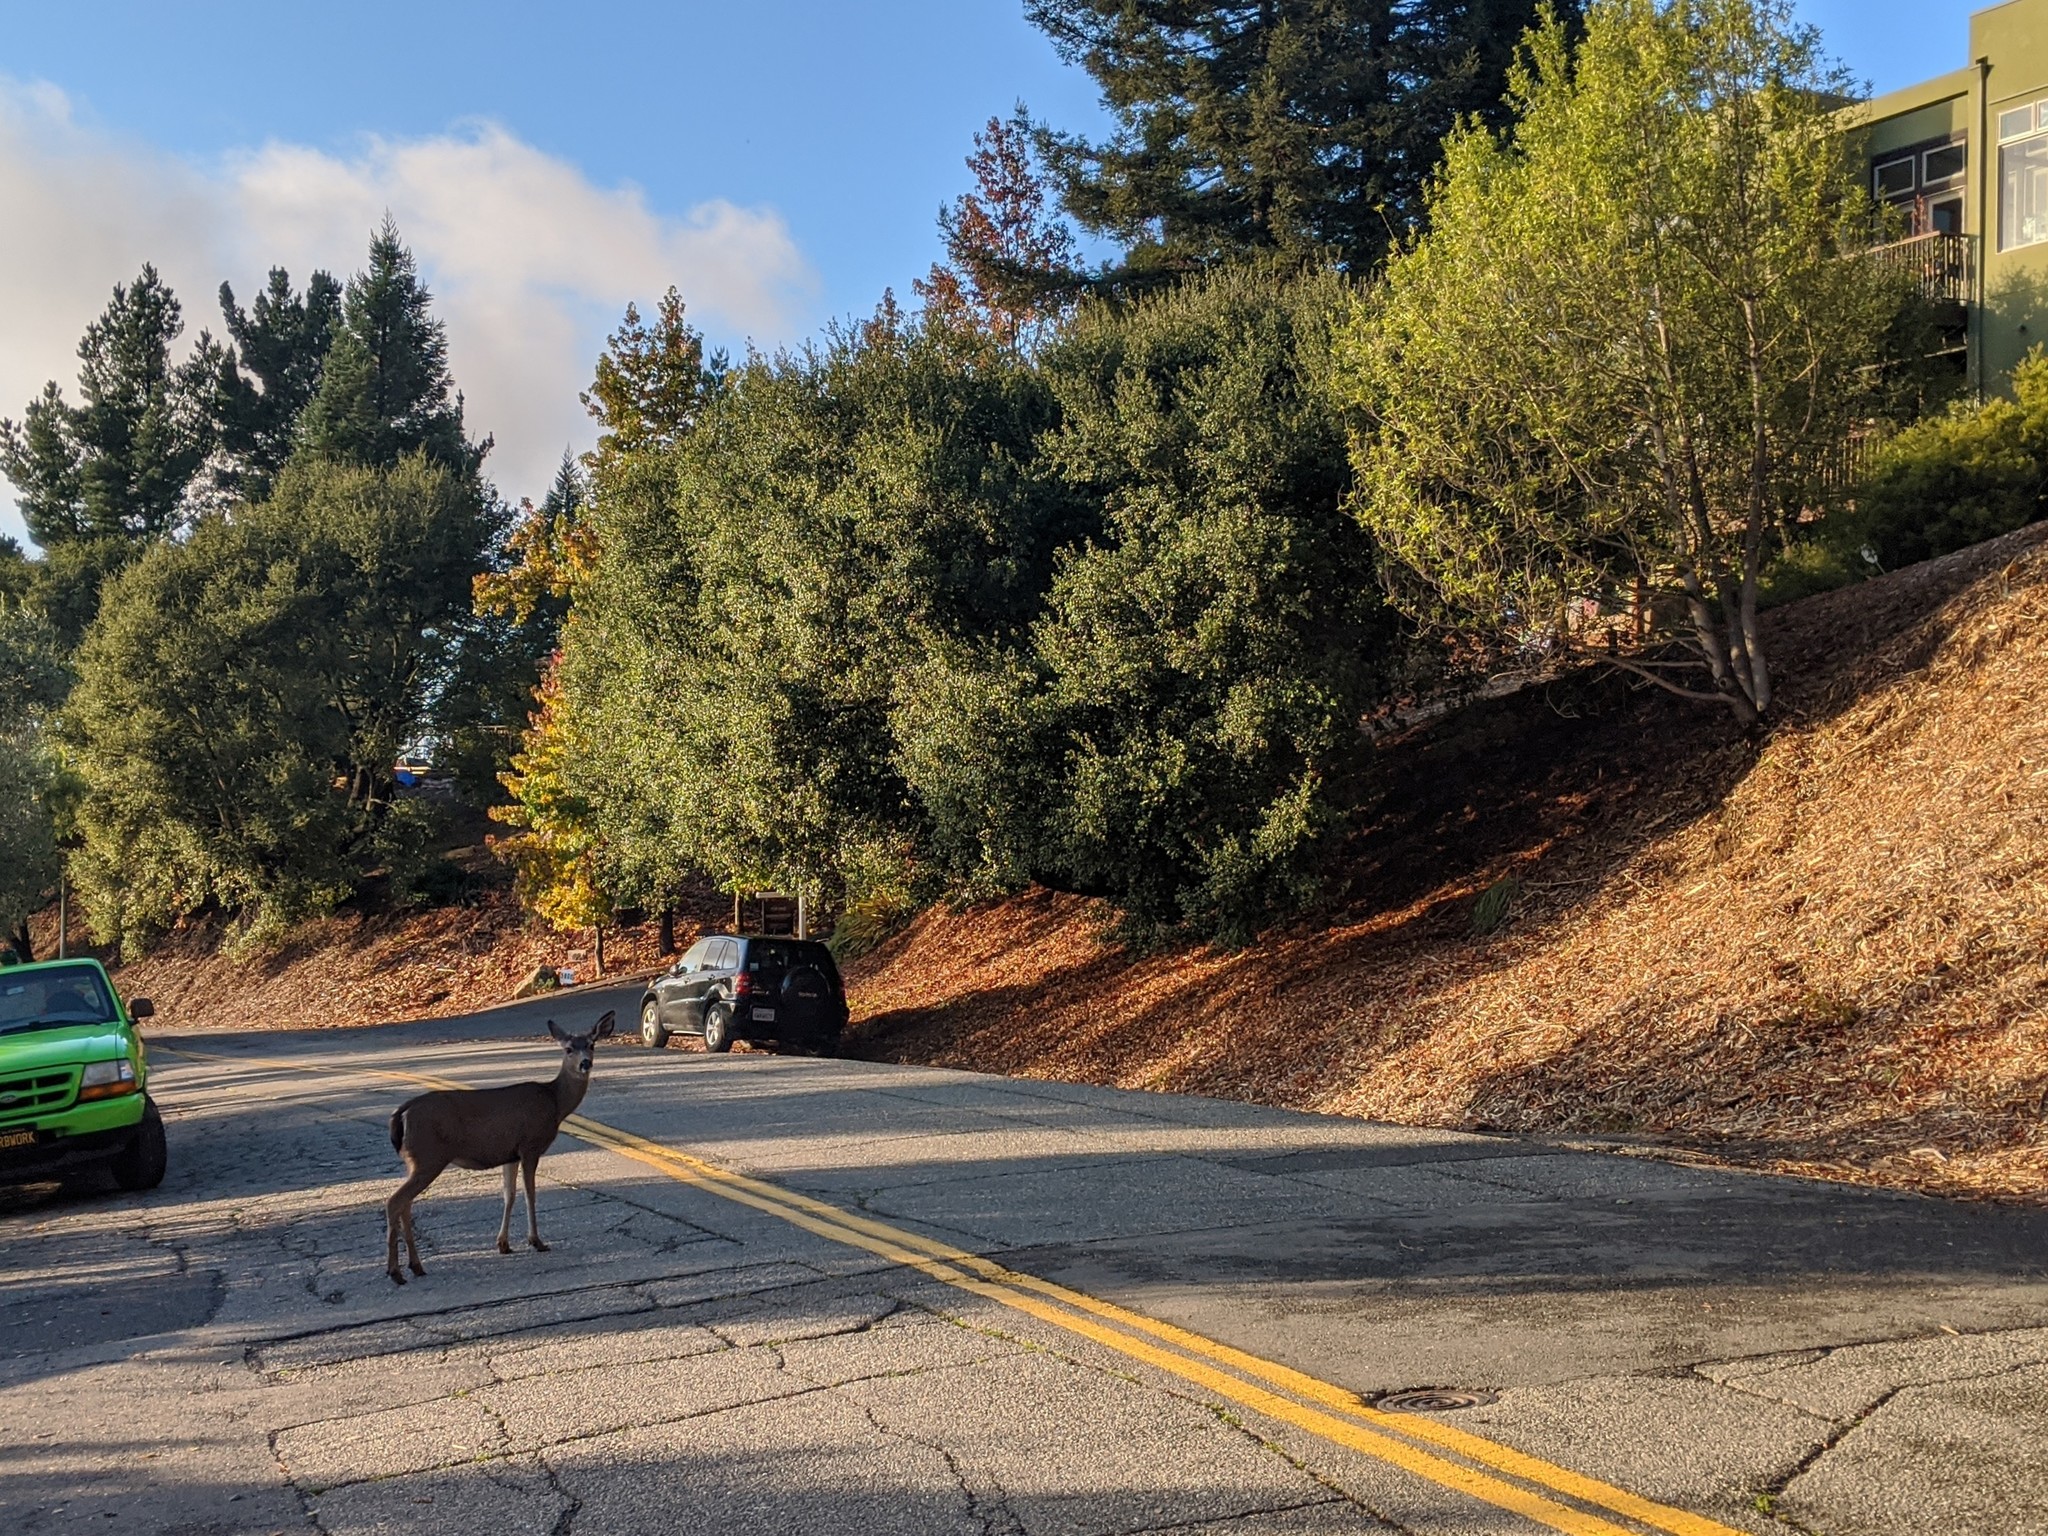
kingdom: Animalia
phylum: Chordata
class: Mammalia
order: Artiodactyla
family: Cervidae
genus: Odocoileus
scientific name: Odocoileus hemionus
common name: Mule deer
